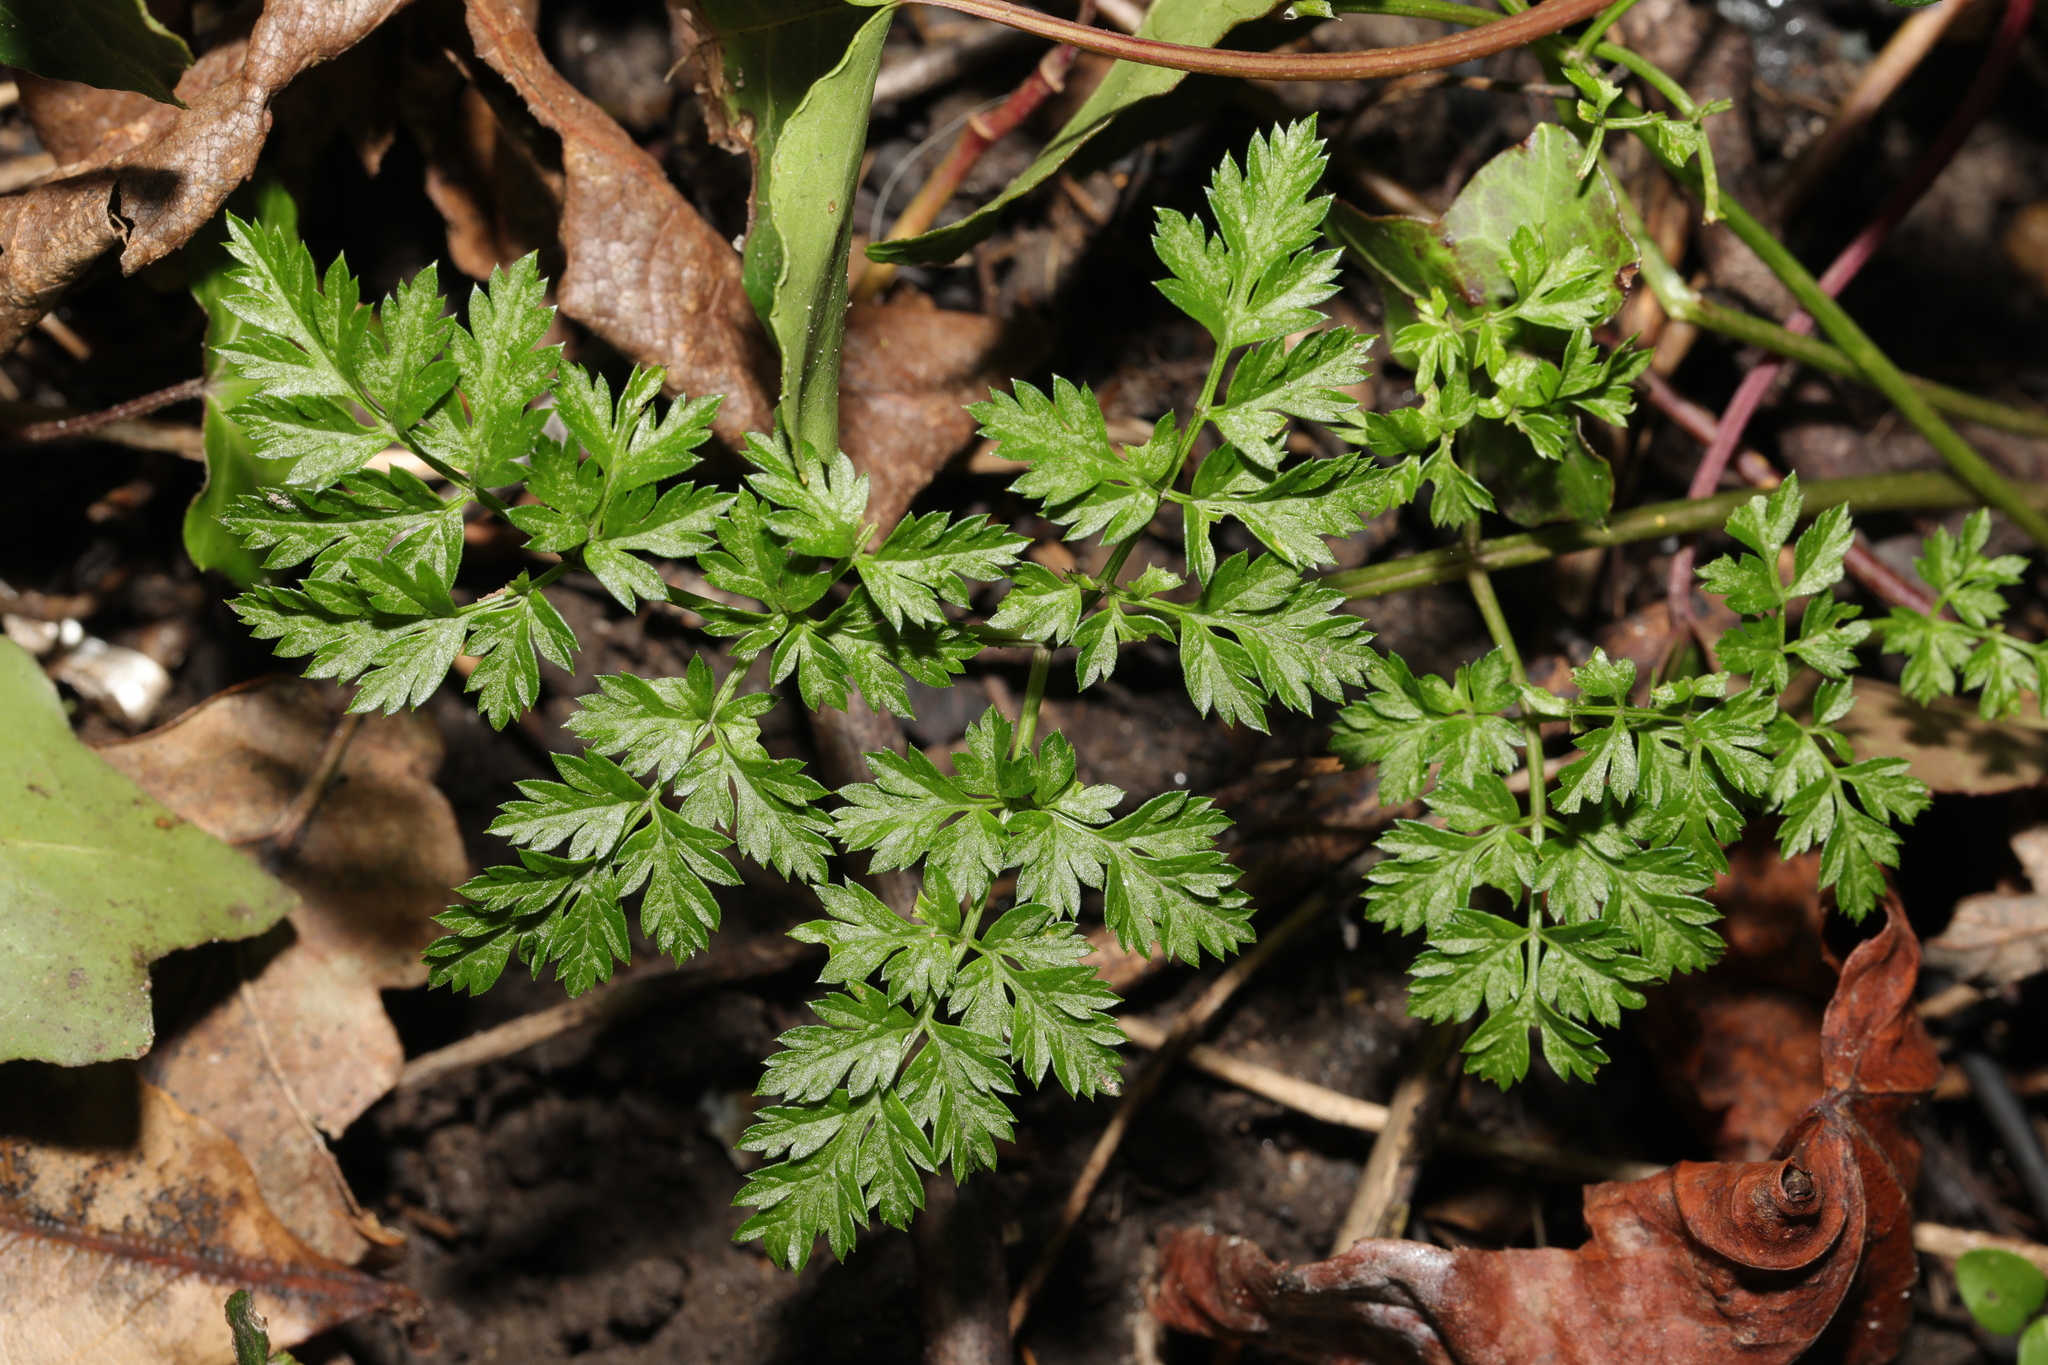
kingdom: Plantae
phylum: Tracheophyta
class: Magnoliopsida
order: Apiales
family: Apiaceae
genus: Anthriscus
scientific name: Anthriscus sylvestris
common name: Cow parsley
